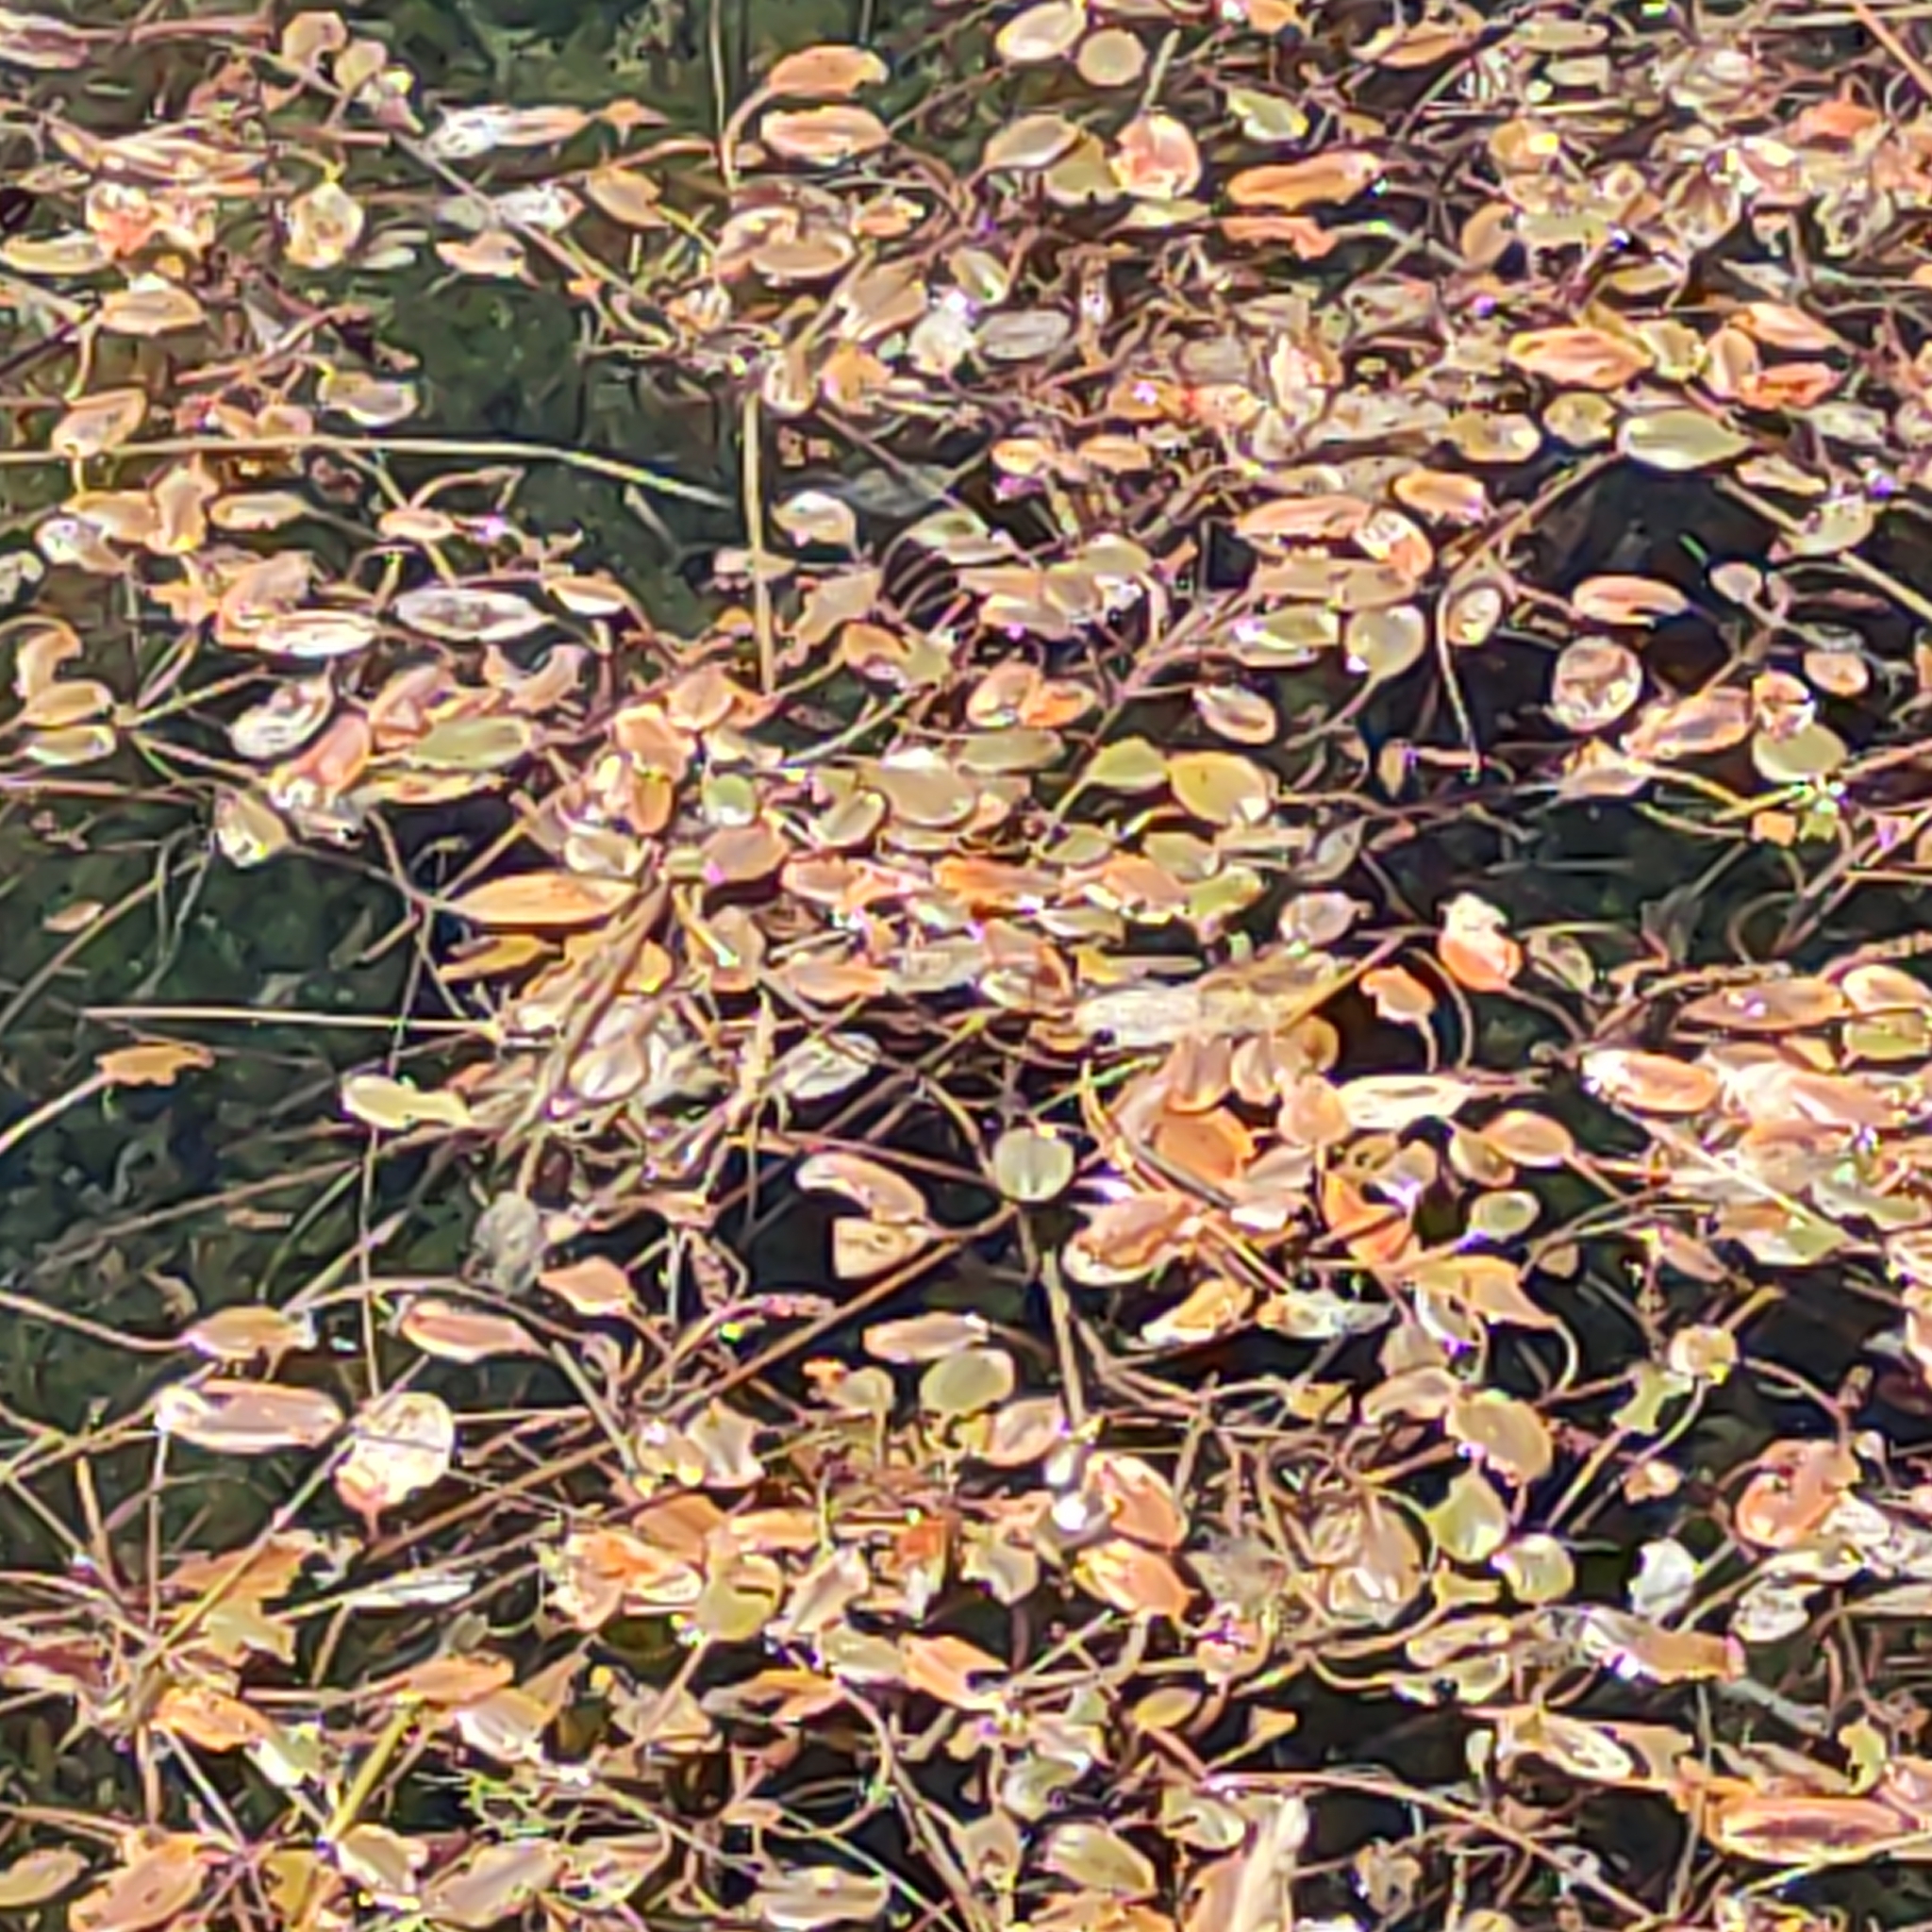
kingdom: Plantae
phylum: Tracheophyta
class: Liliopsida
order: Alismatales
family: Potamogetonaceae
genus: Potamogeton
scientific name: Potamogeton cheesemanii
